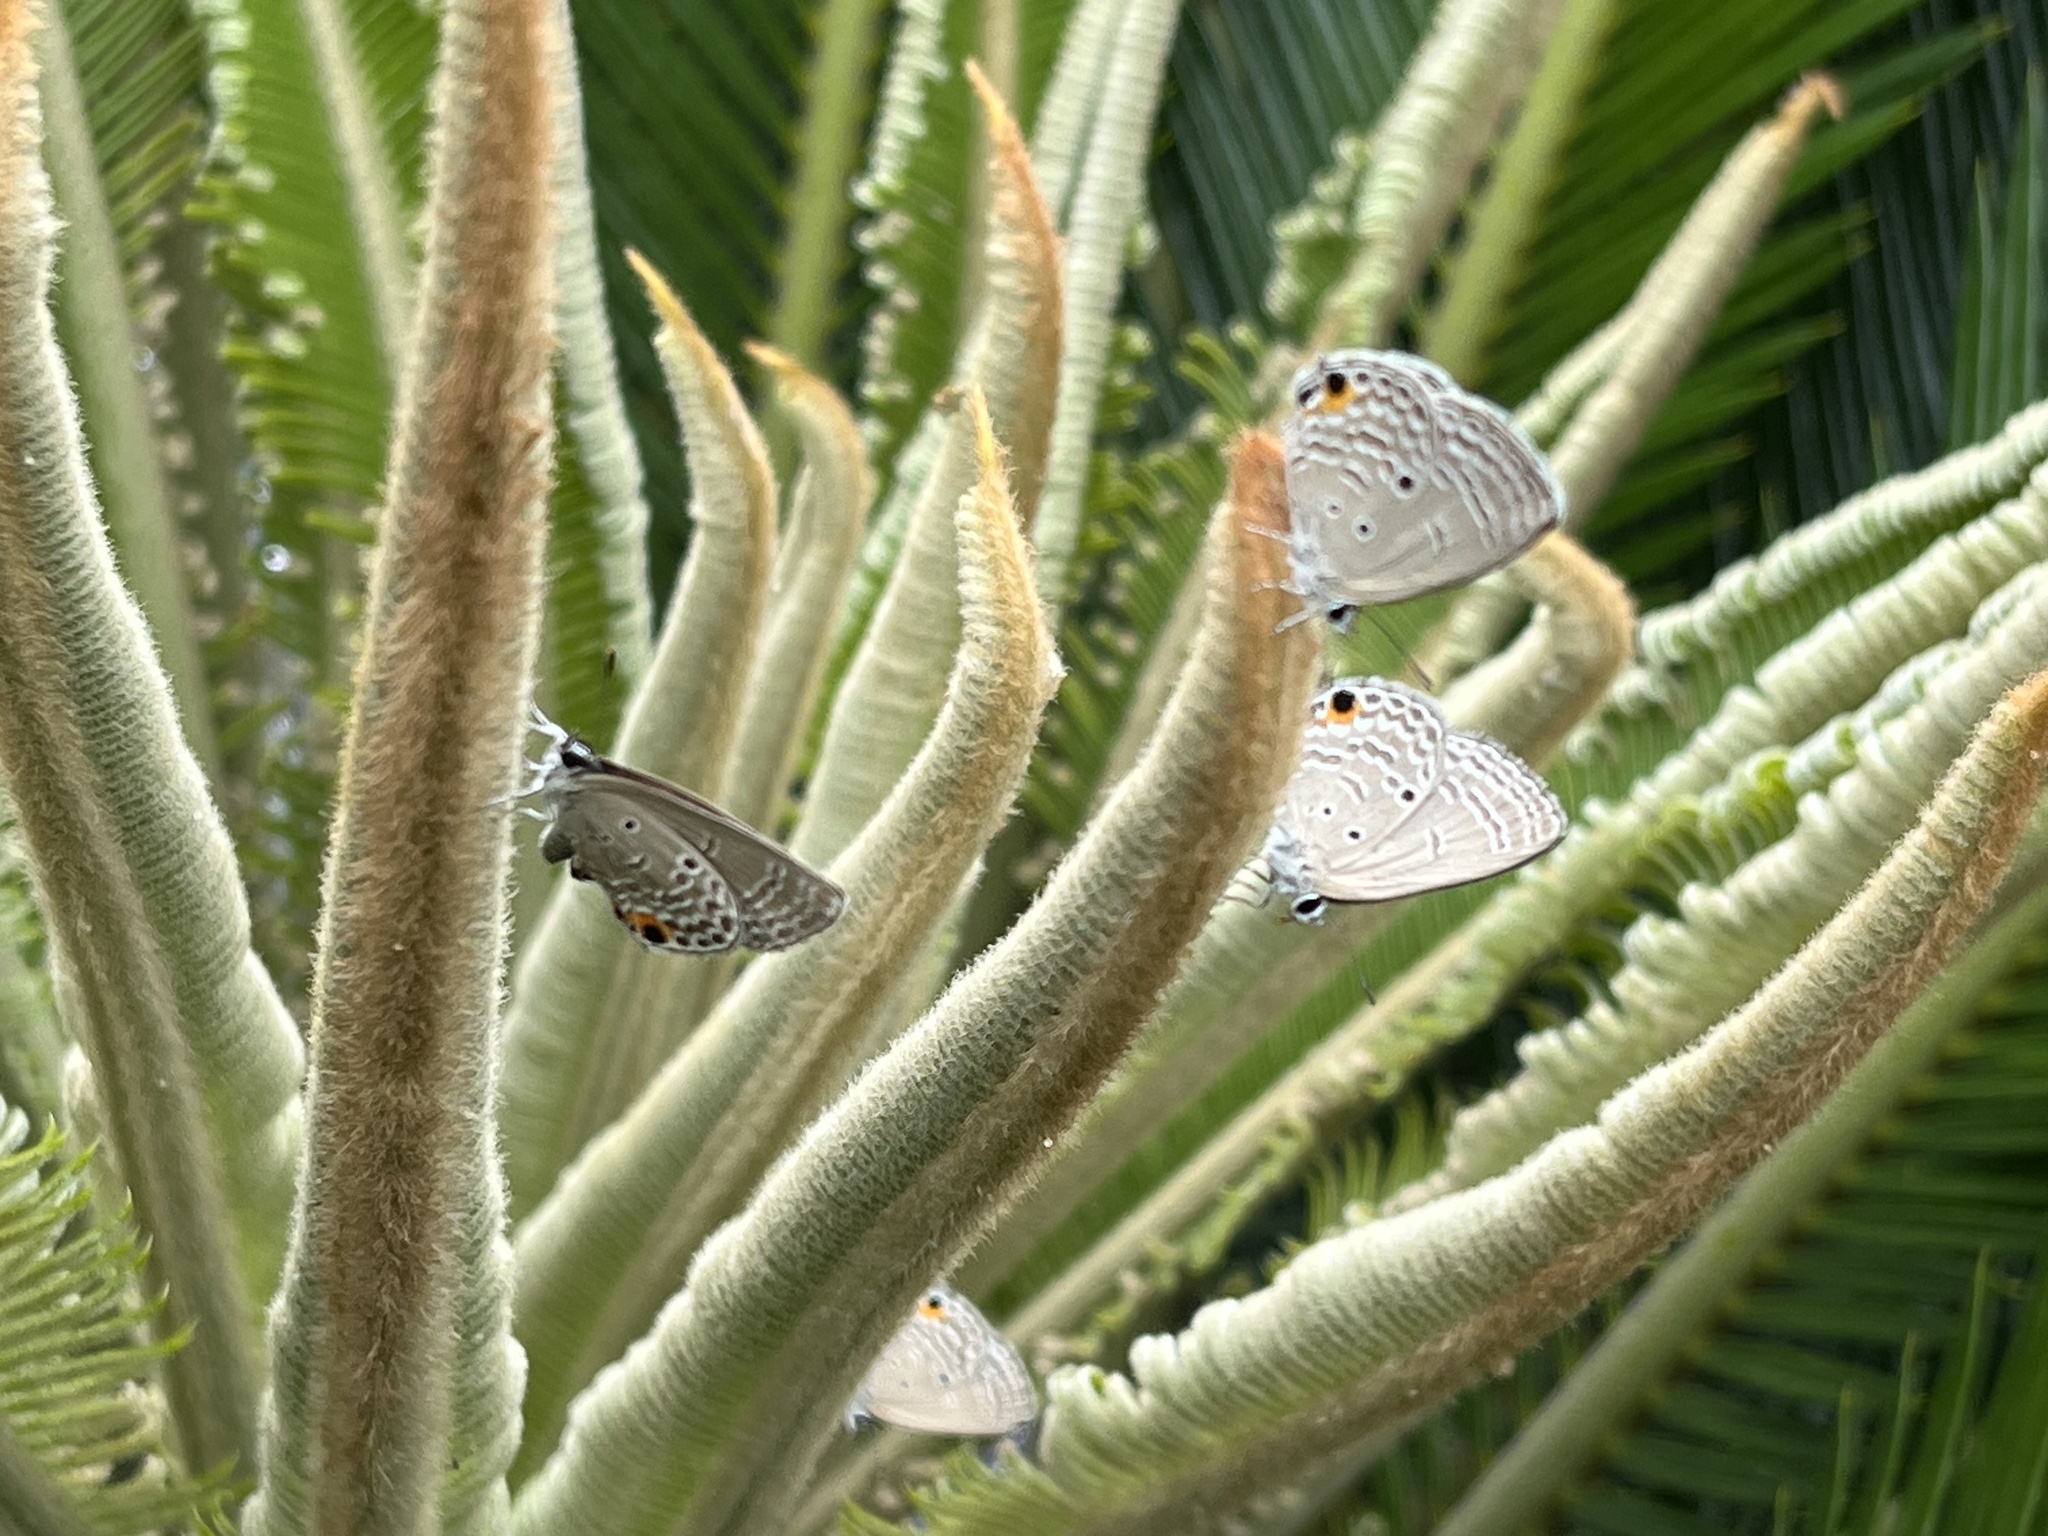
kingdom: Animalia
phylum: Arthropoda
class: Insecta
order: Lepidoptera
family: Lycaenidae
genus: Luthrodes
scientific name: Luthrodes pandava
